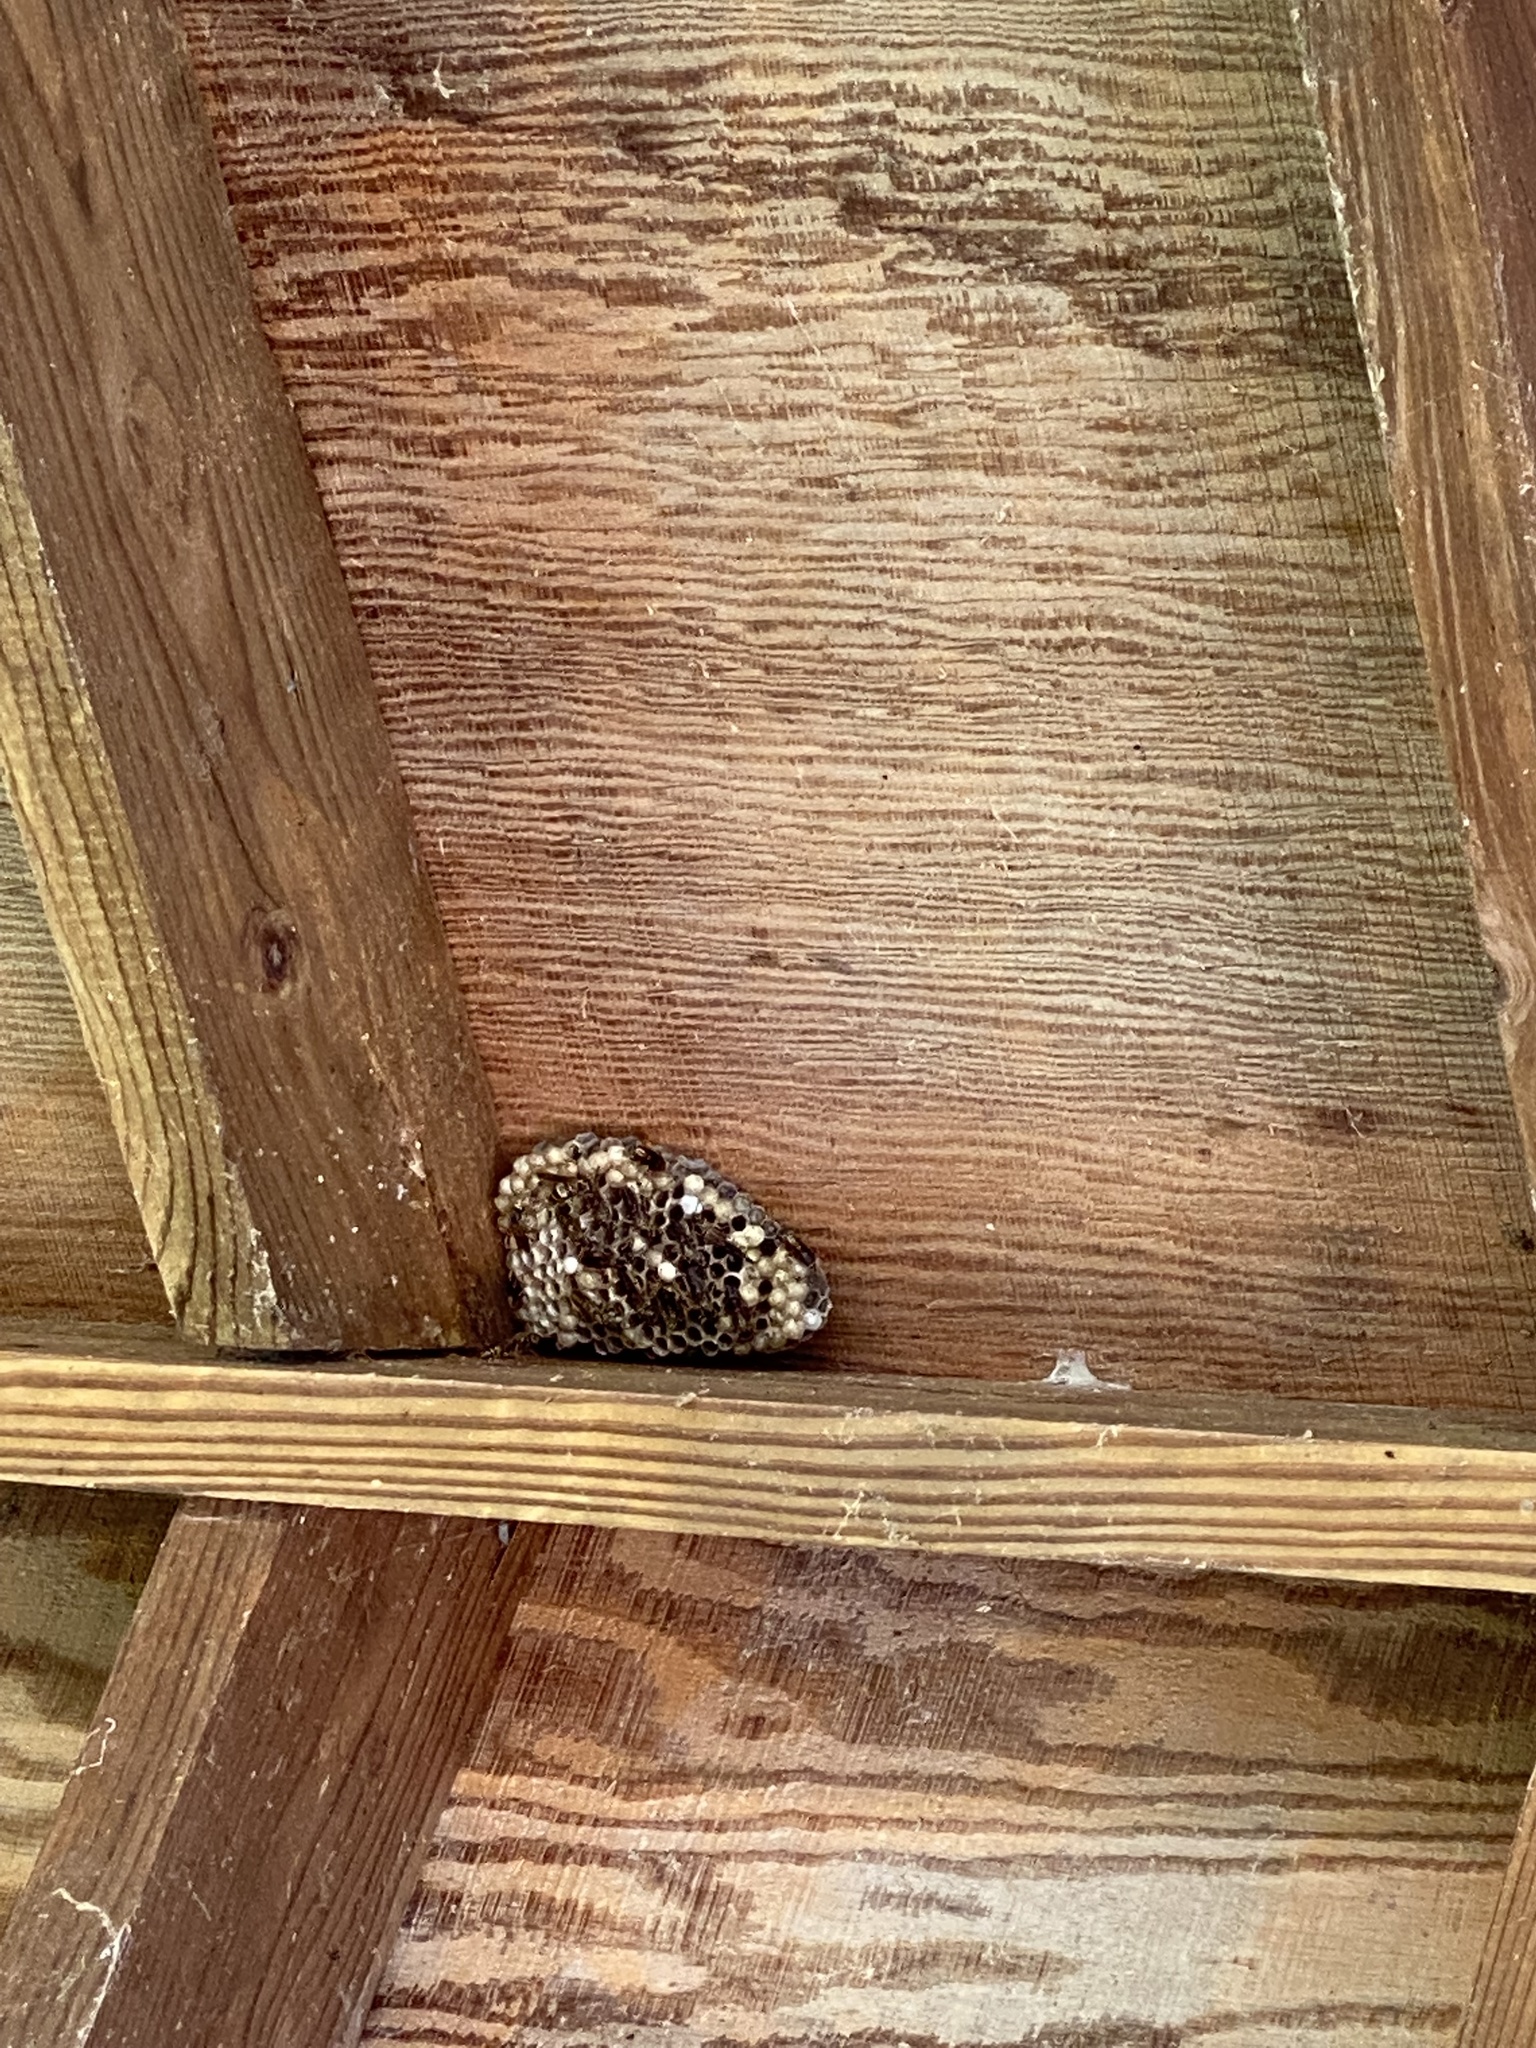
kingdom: Animalia
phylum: Arthropoda
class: Insecta
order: Hymenoptera
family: Eumenidae
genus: Polistes
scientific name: Polistes
